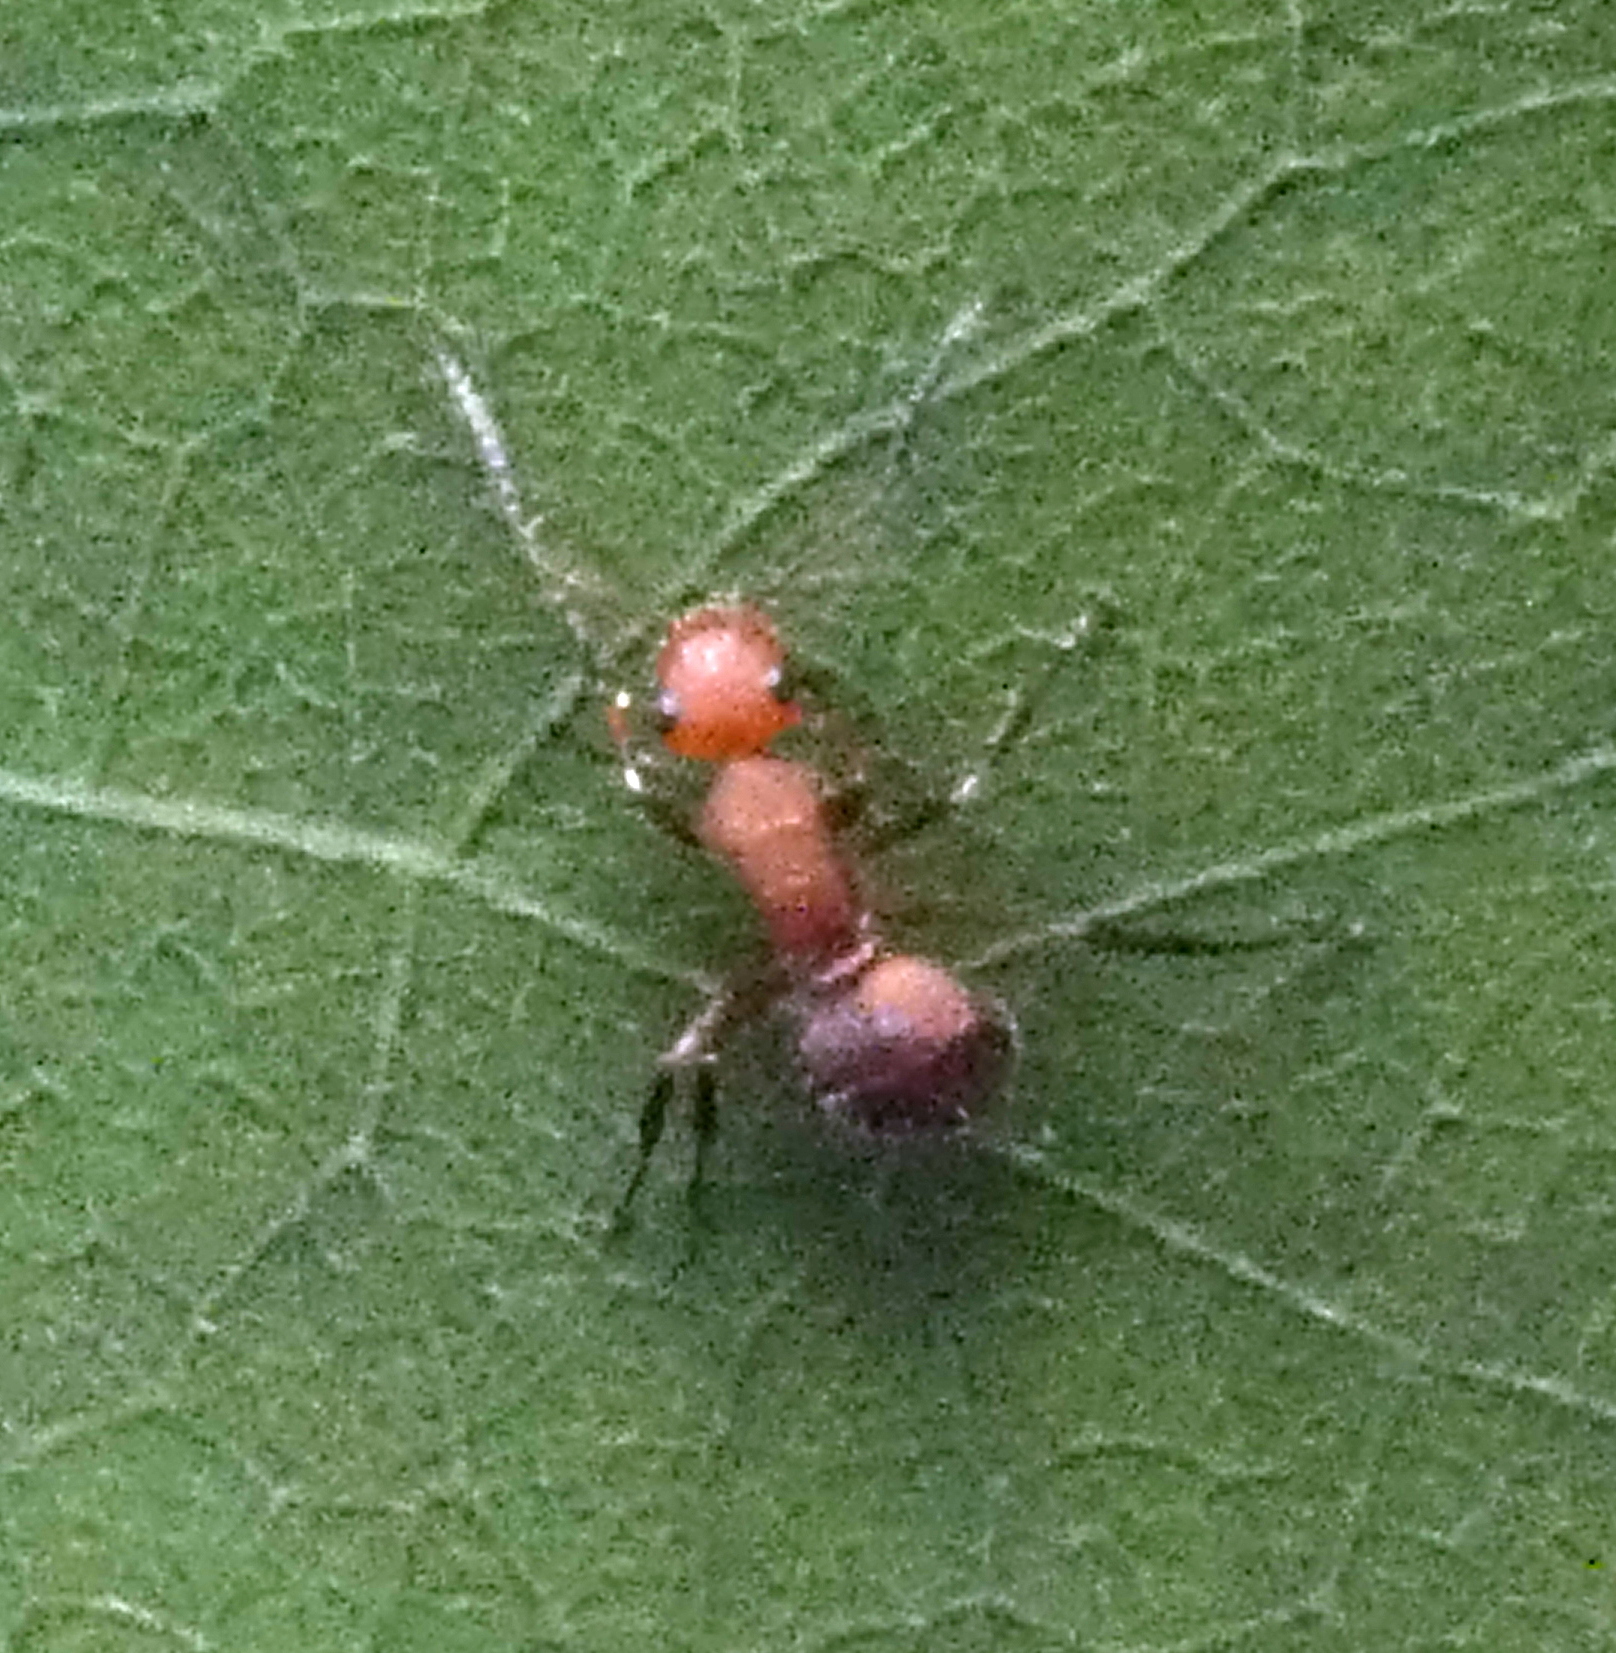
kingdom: Animalia
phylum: Arthropoda
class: Insecta
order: Hymenoptera
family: Formicidae
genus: Camponotus
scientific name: Camponotus rectangularis
